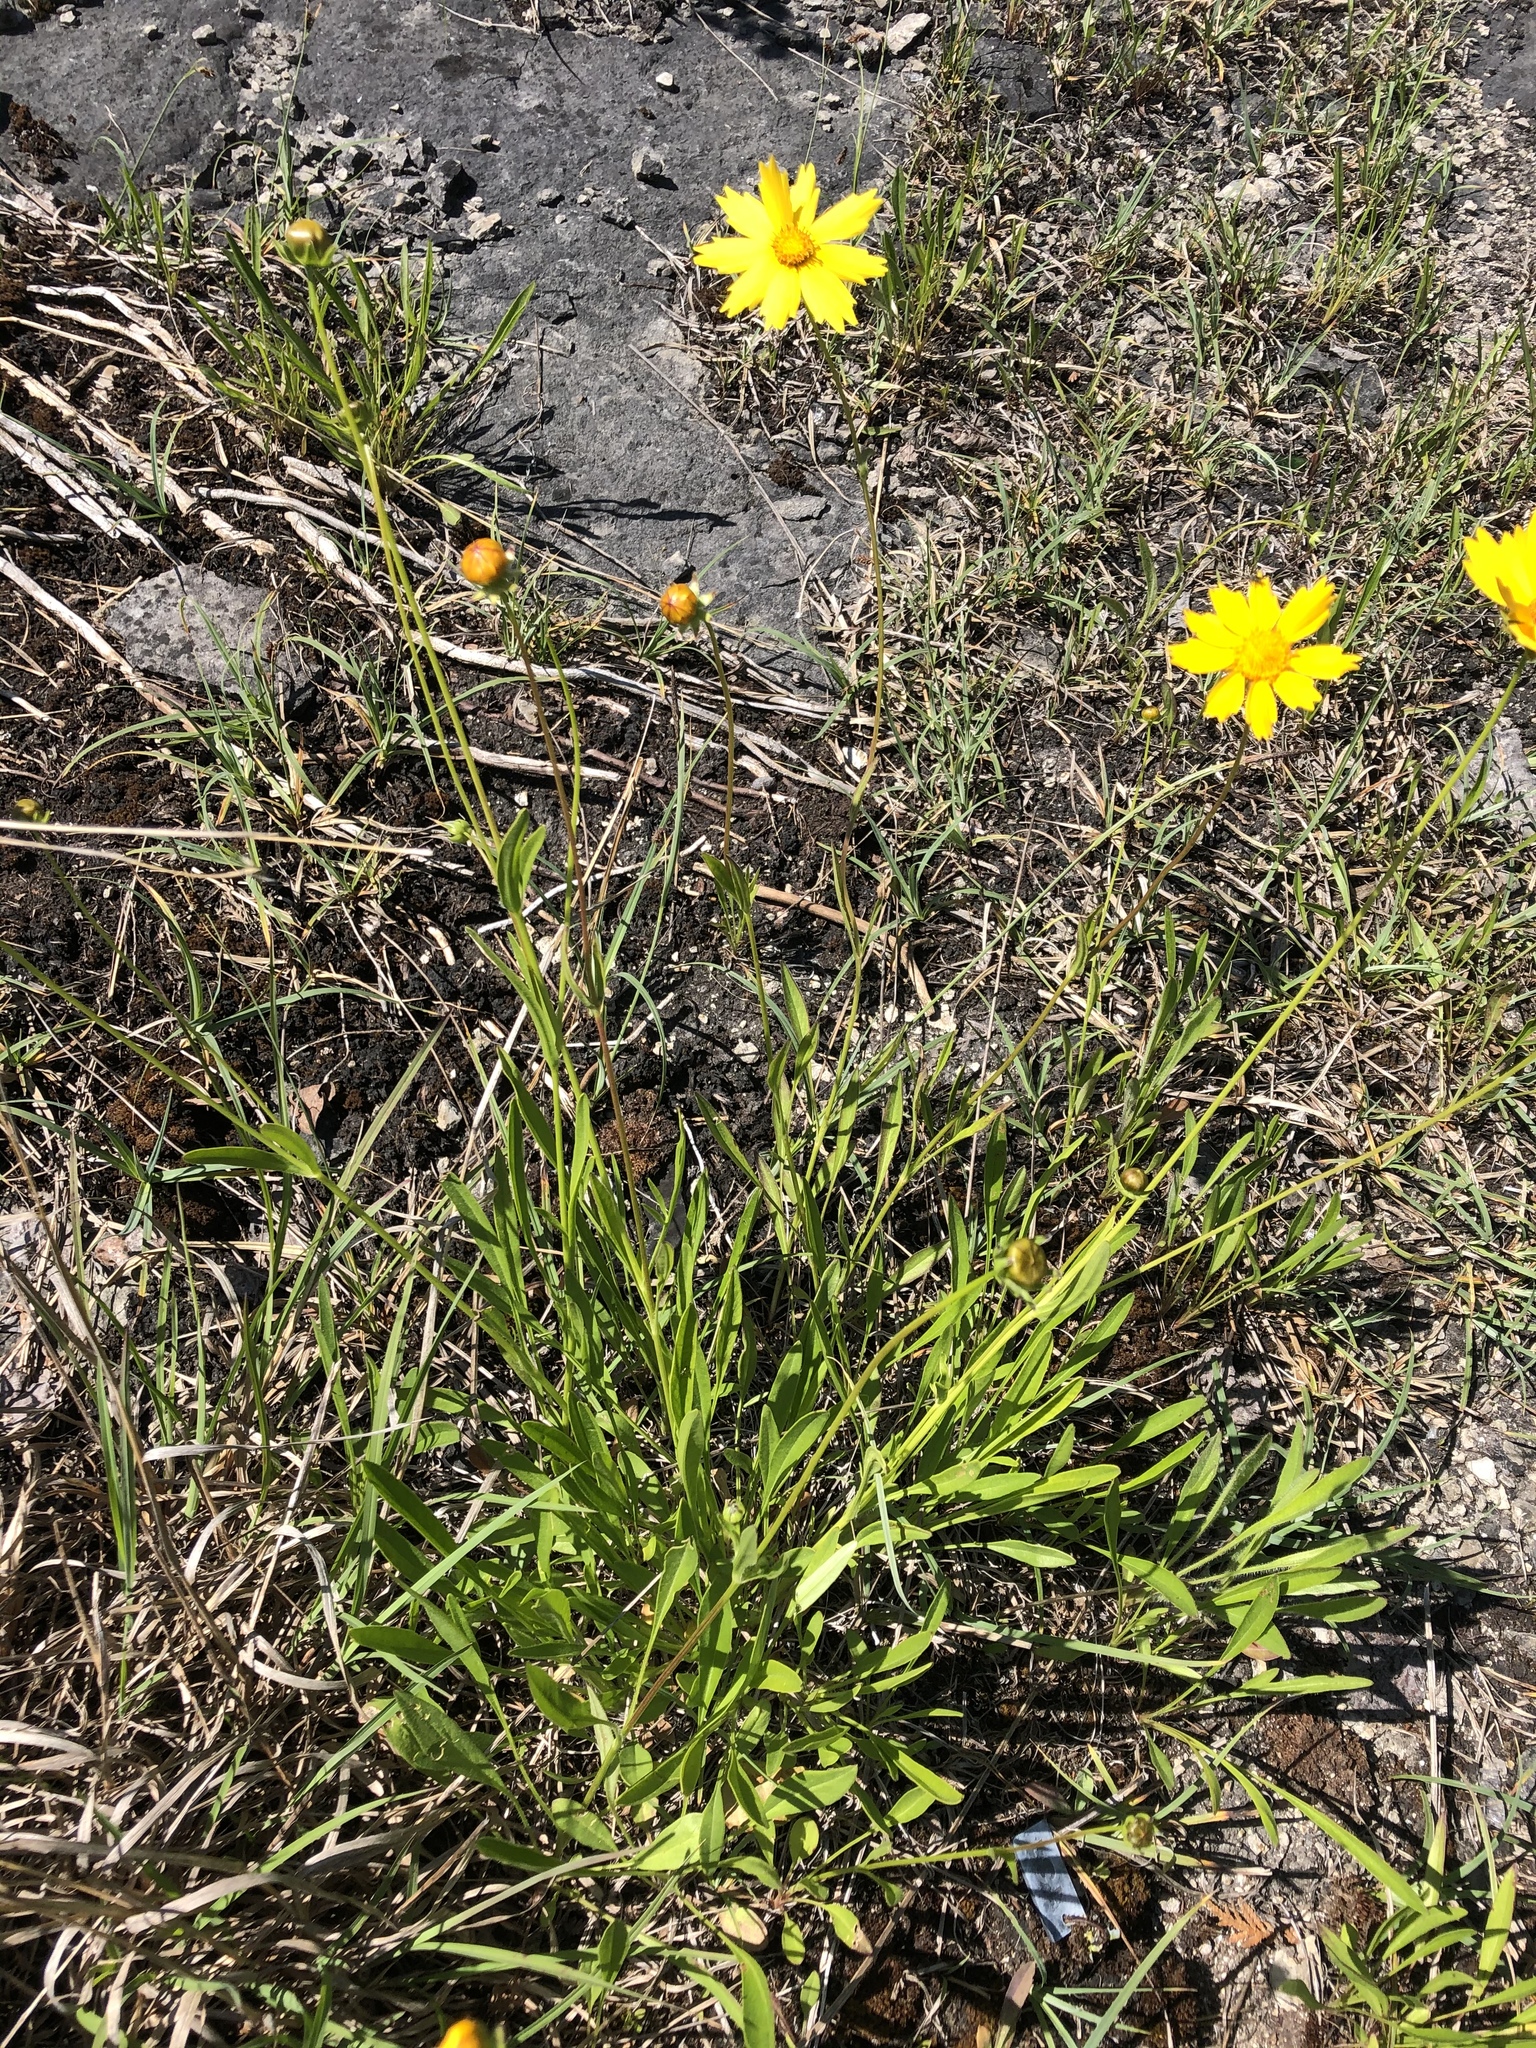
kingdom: Plantae
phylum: Tracheophyta
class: Magnoliopsida
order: Asterales
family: Asteraceae
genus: Coreopsis
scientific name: Coreopsis lanceolata
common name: Garden coreopsis
